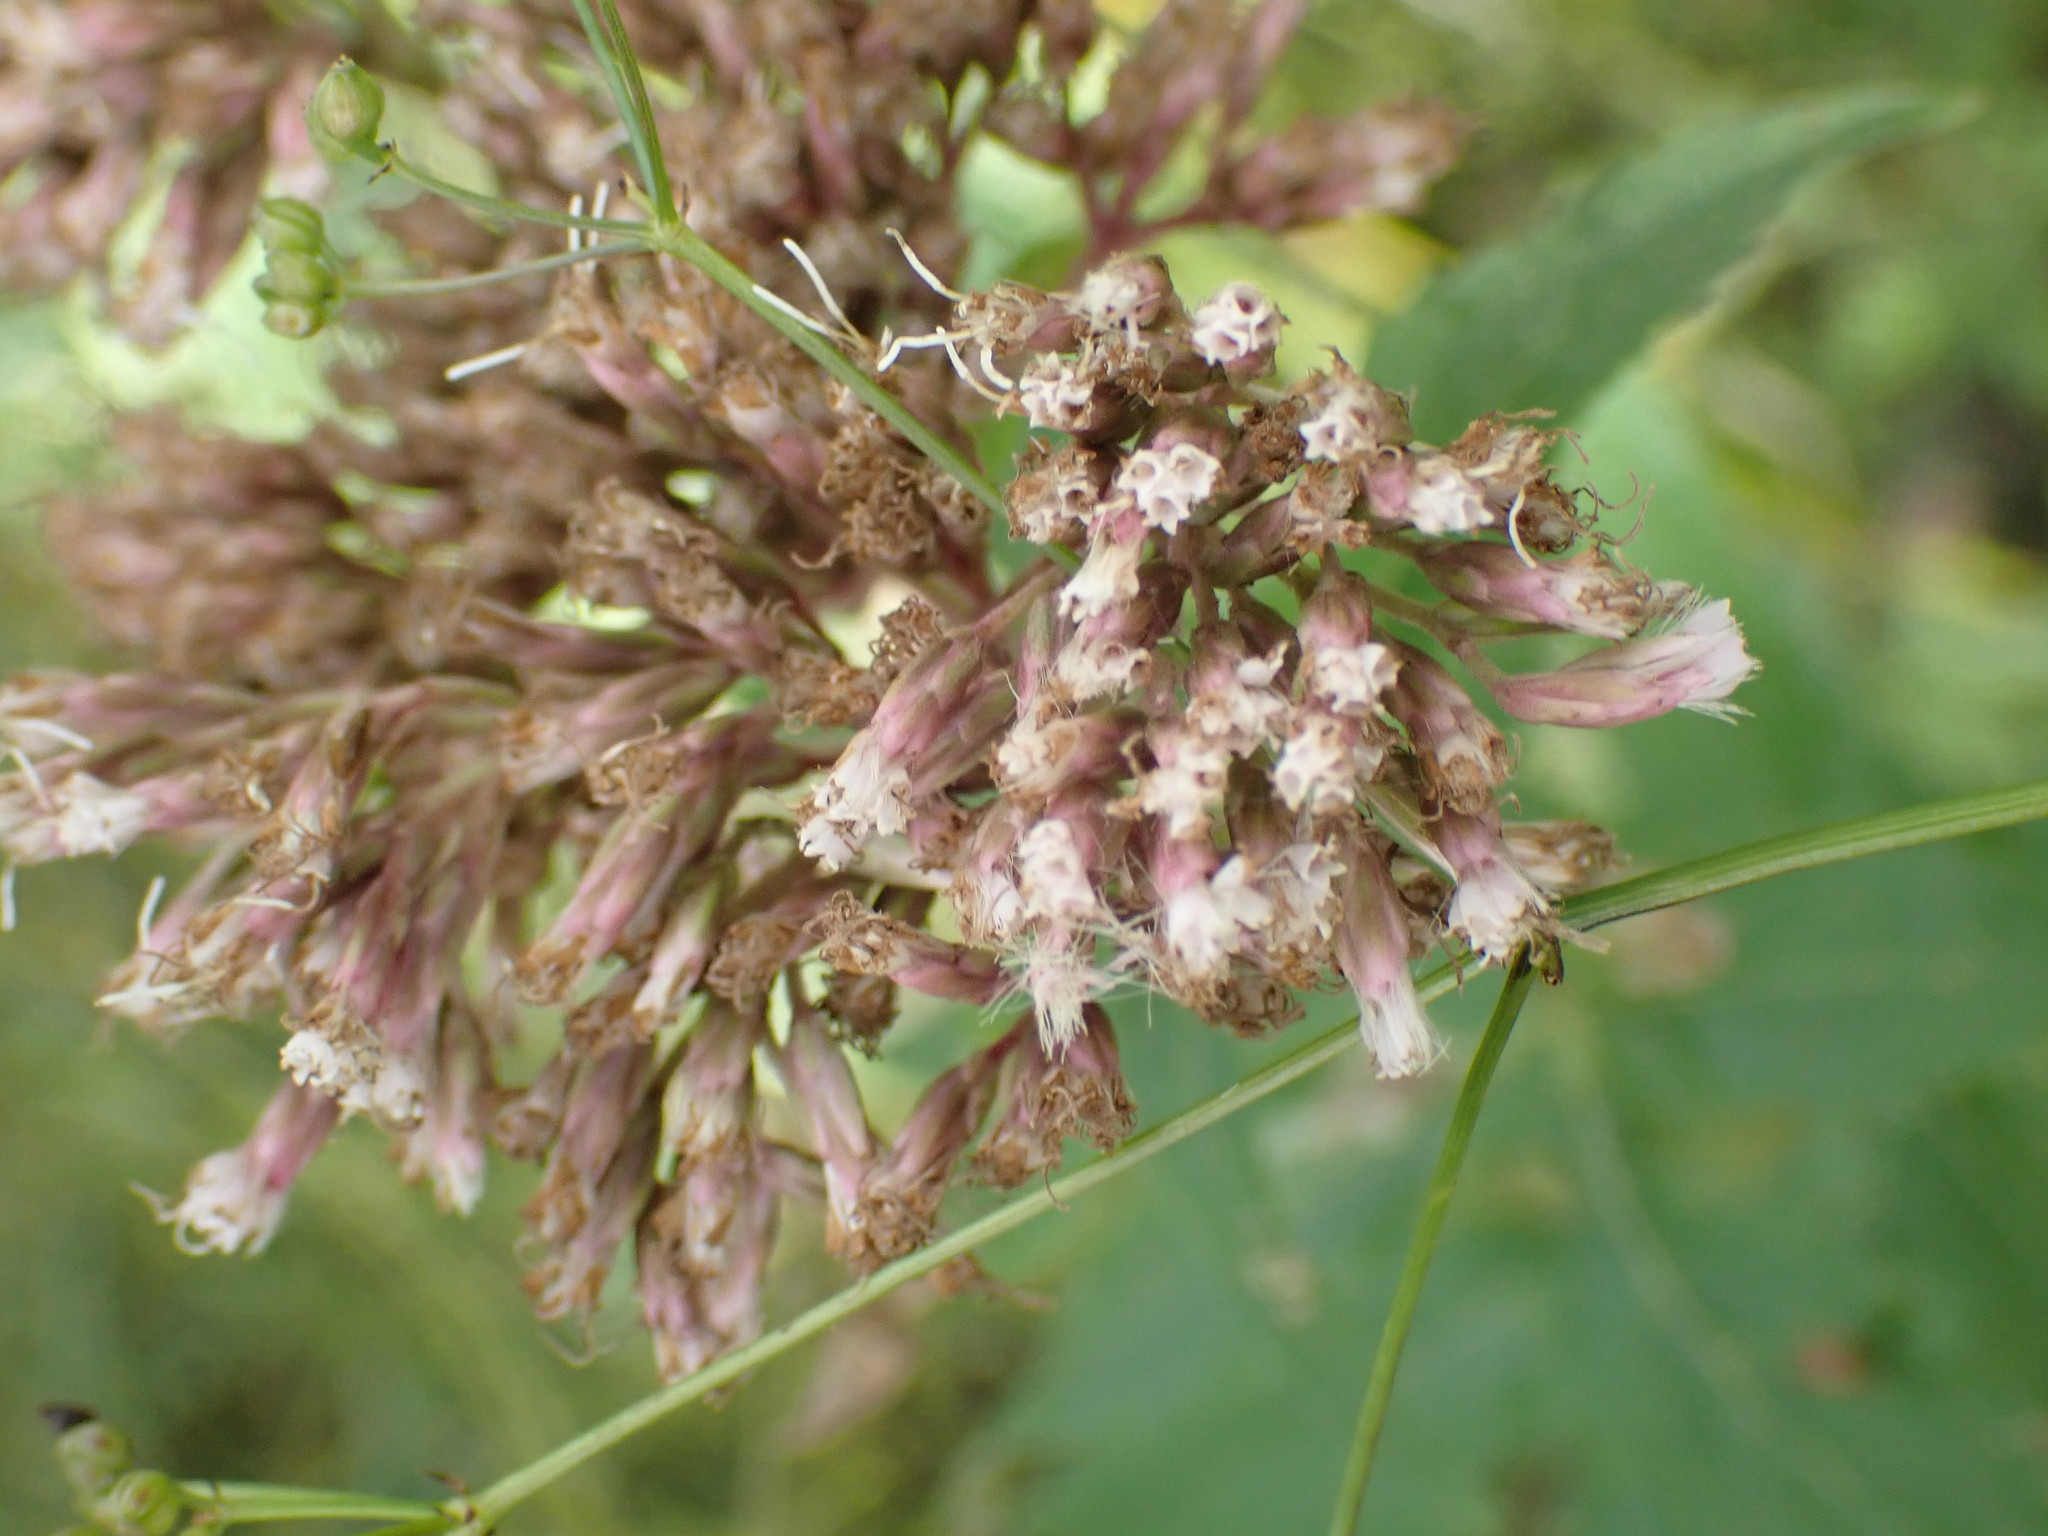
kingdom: Plantae
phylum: Tracheophyta
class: Magnoliopsida
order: Asterales
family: Asteraceae
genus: Eupatorium
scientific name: Eupatorium cannabinum
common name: Hemp-agrimony
